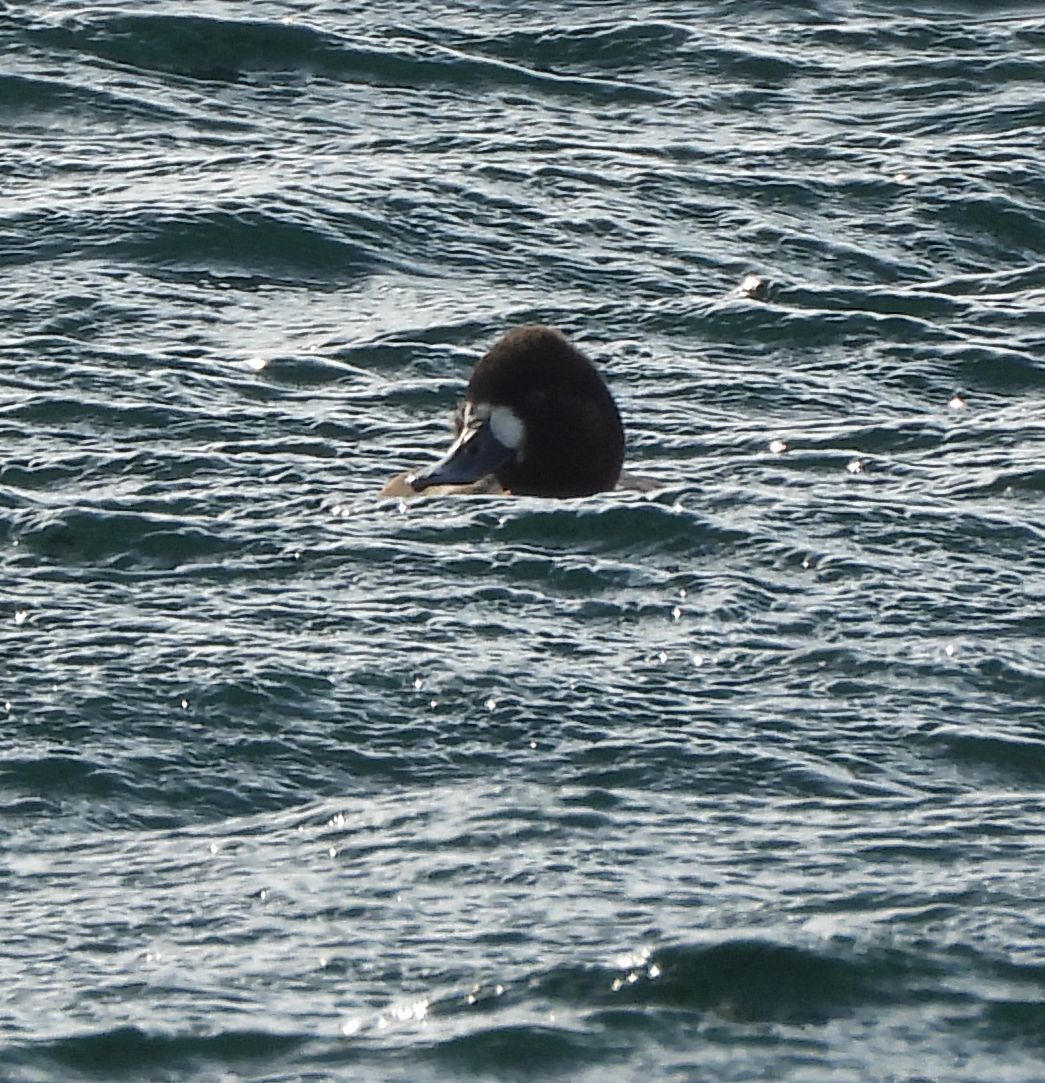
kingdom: Animalia
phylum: Chordata
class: Aves
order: Anseriformes
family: Anatidae
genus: Aythya
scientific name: Aythya marila
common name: Greater scaup
